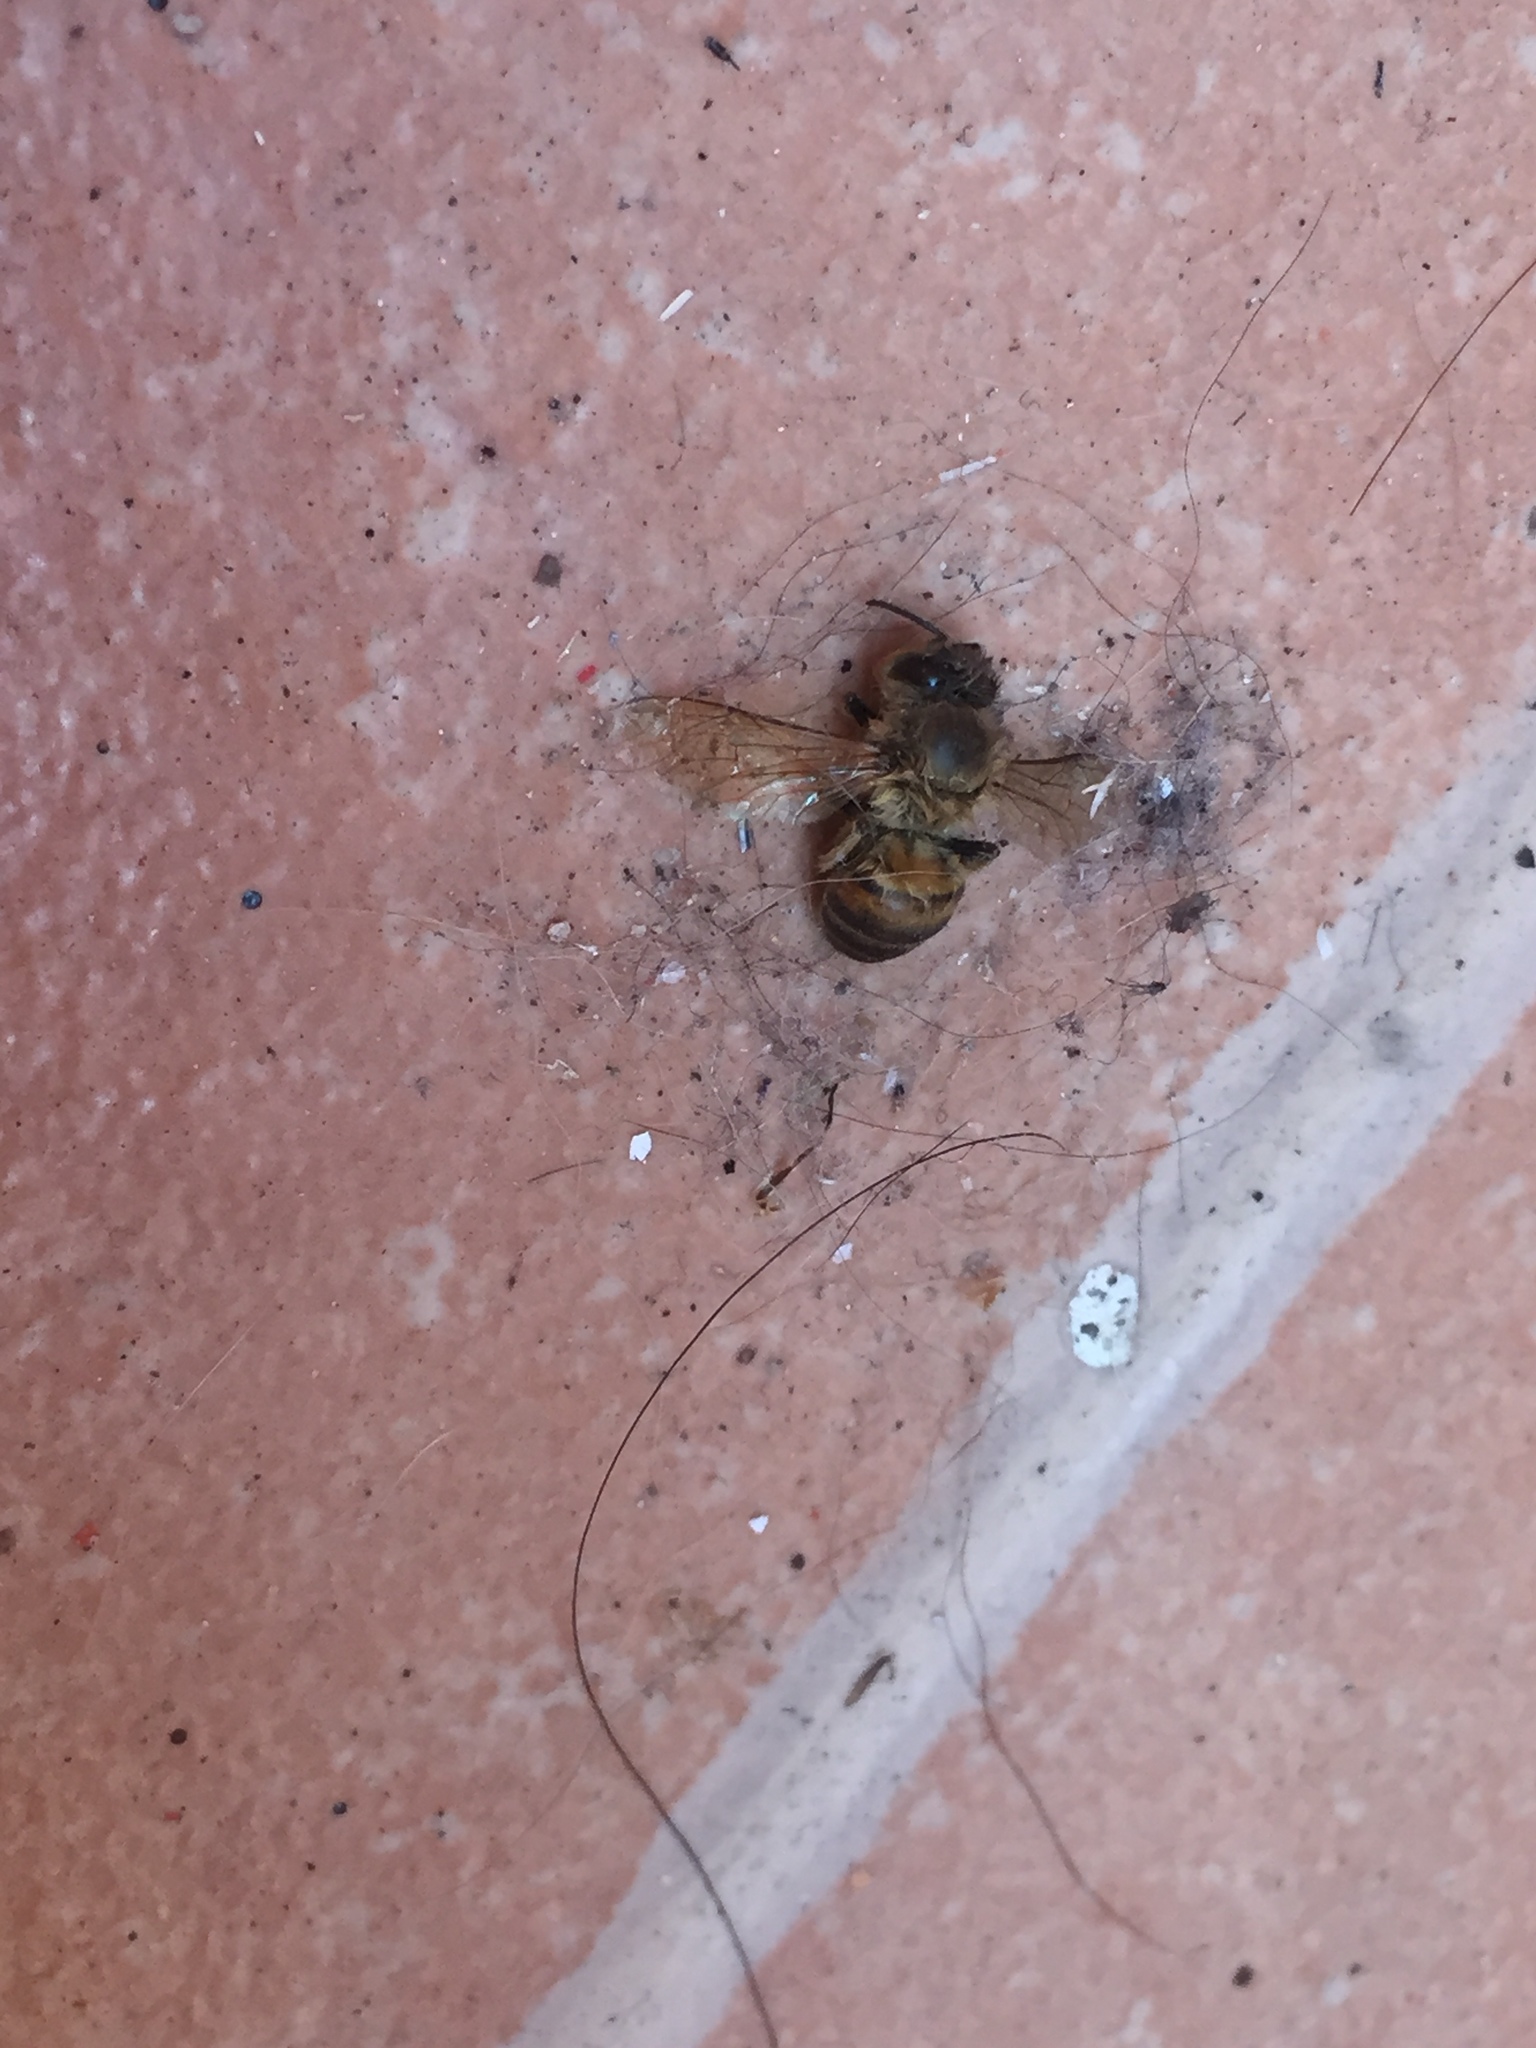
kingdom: Animalia
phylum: Arthropoda
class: Insecta
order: Hymenoptera
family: Apidae
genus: Apis
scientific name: Apis mellifera
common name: Honey bee
